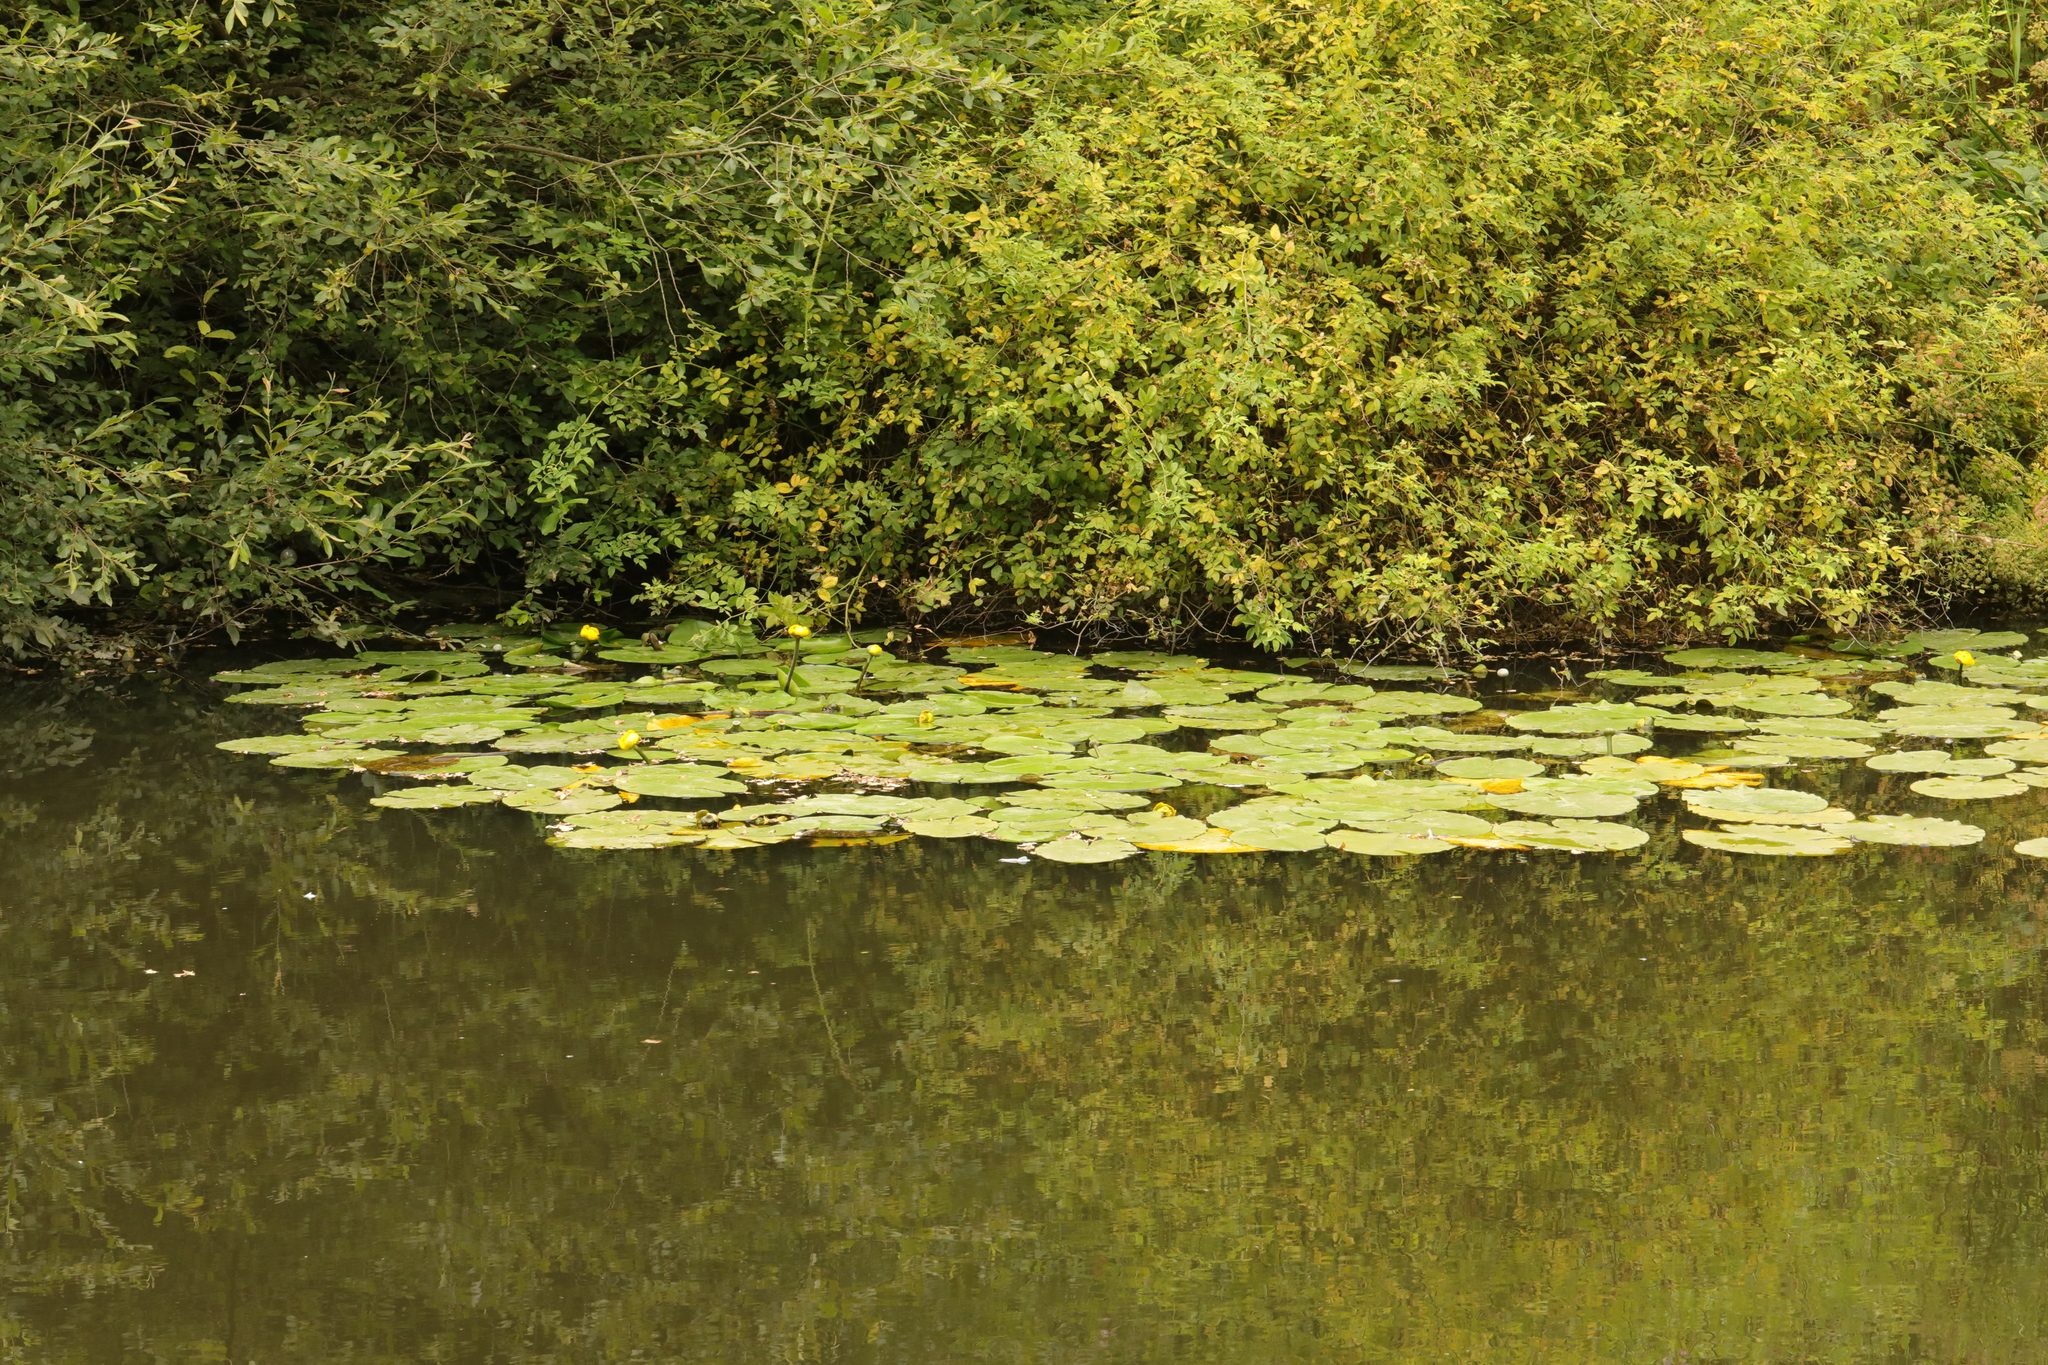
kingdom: Plantae
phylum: Tracheophyta
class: Magnoliopsida
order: Nymphaeales
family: Nymphaeaceae
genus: Nuphar
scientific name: Nuphar lutea
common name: Yellow water-lily
